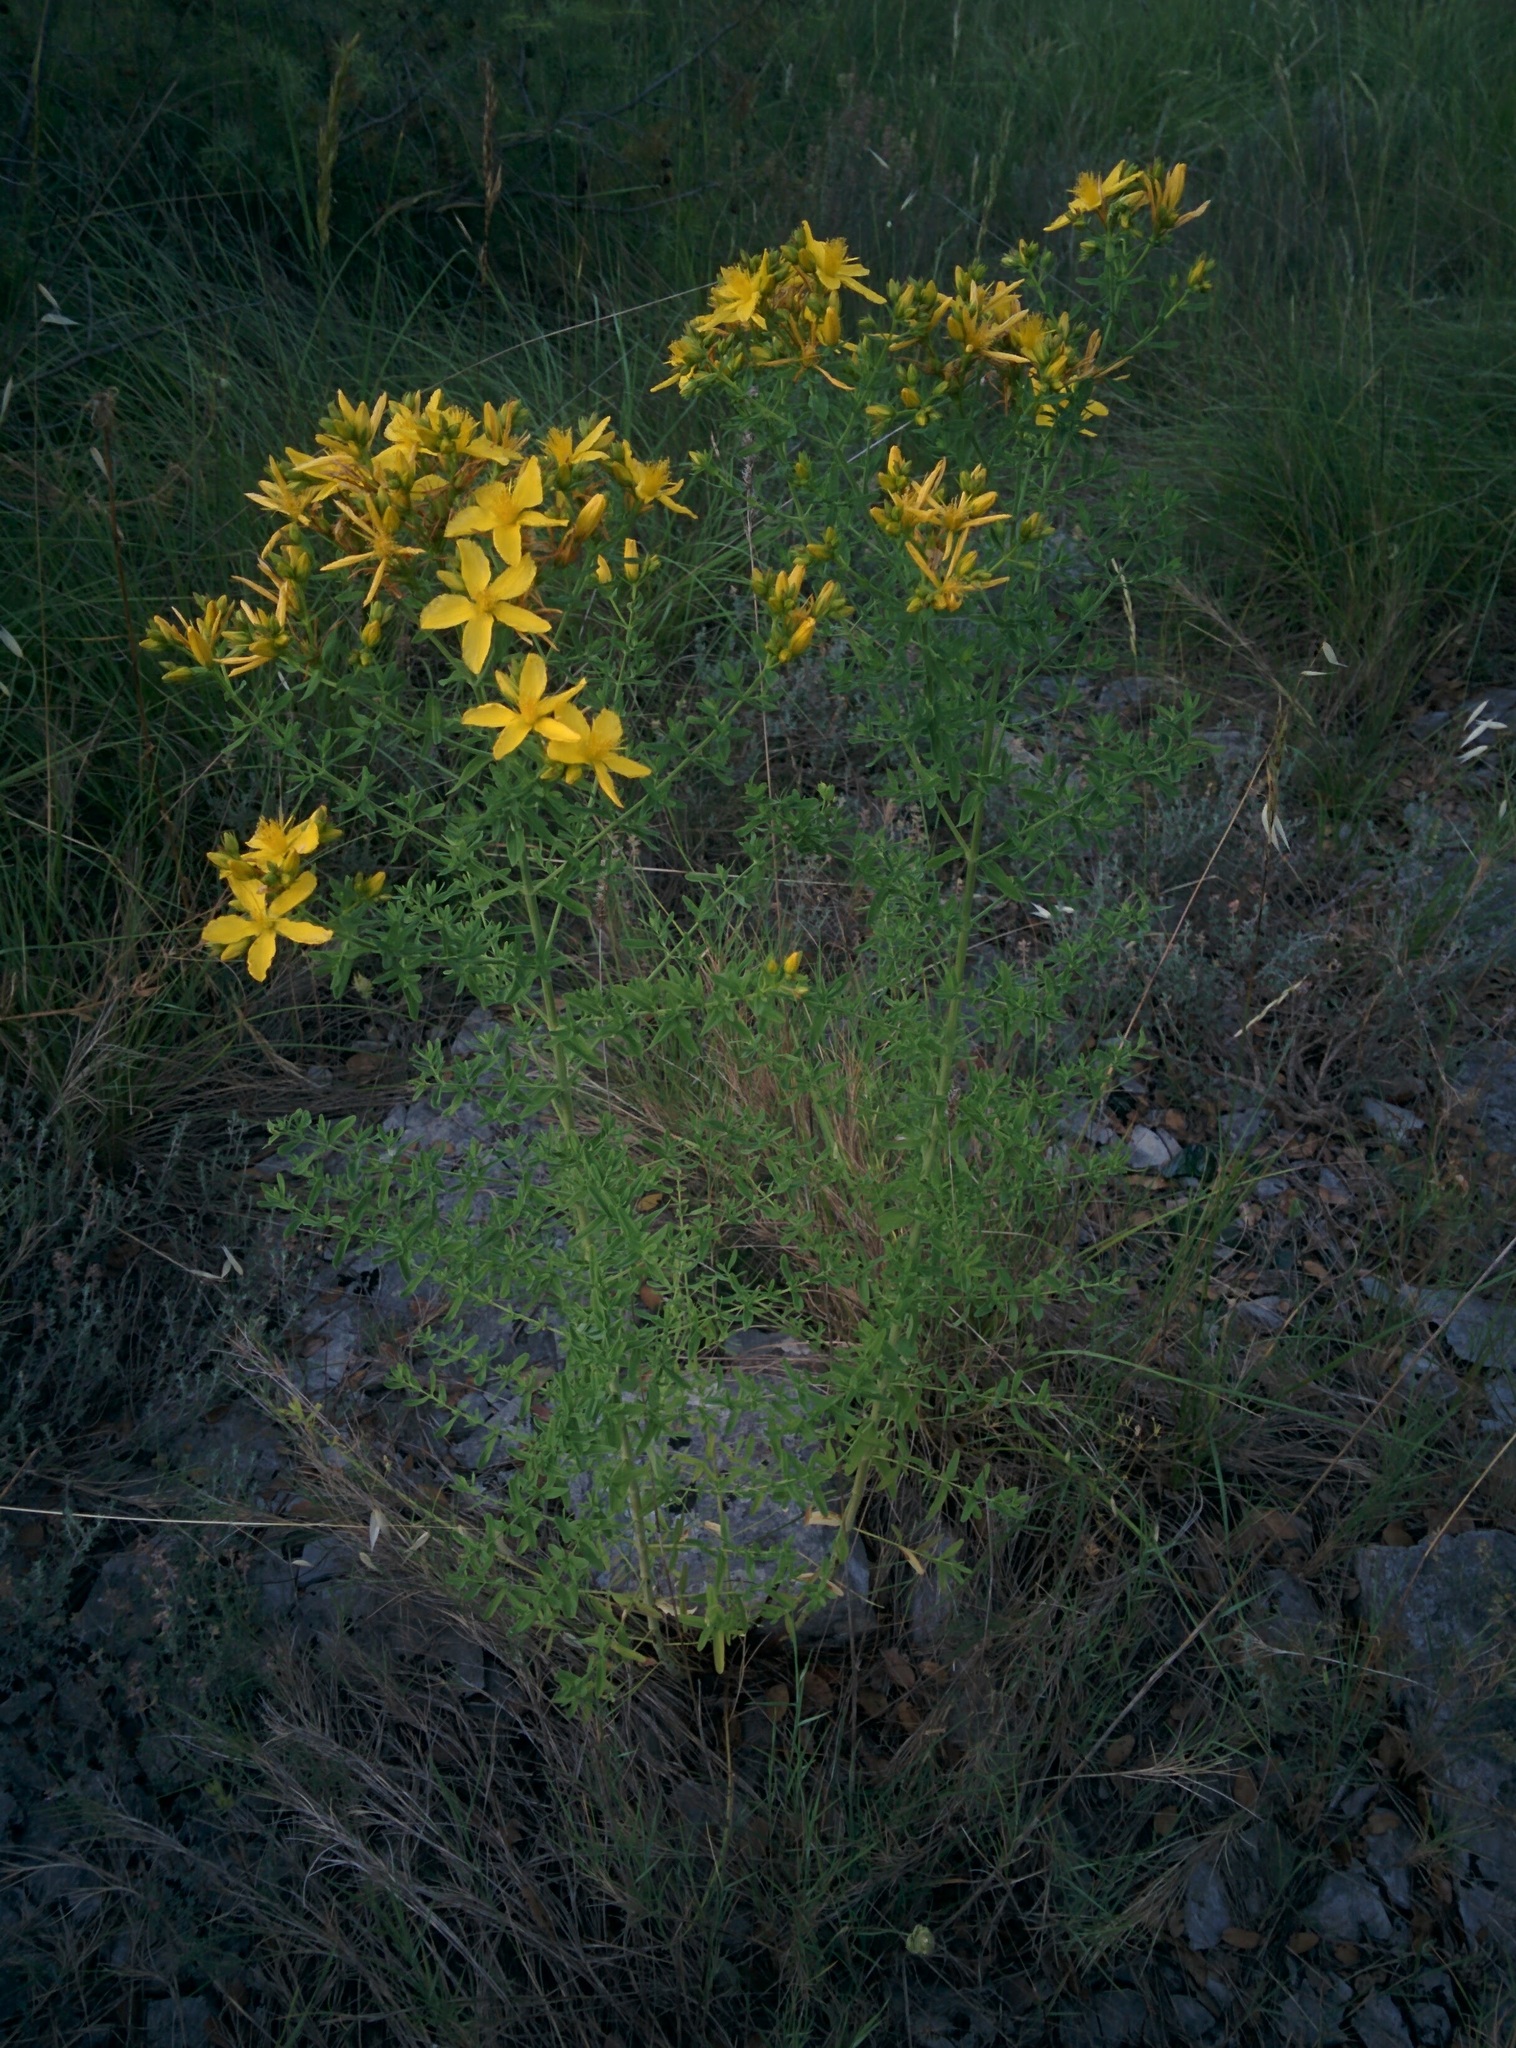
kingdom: Plantae
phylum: Tracheophyta
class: Magnoliopsida
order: Malpighiales
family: Hypericaceae
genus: Hypericum
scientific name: Hypericum perforatum
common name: Common st. johnswort
